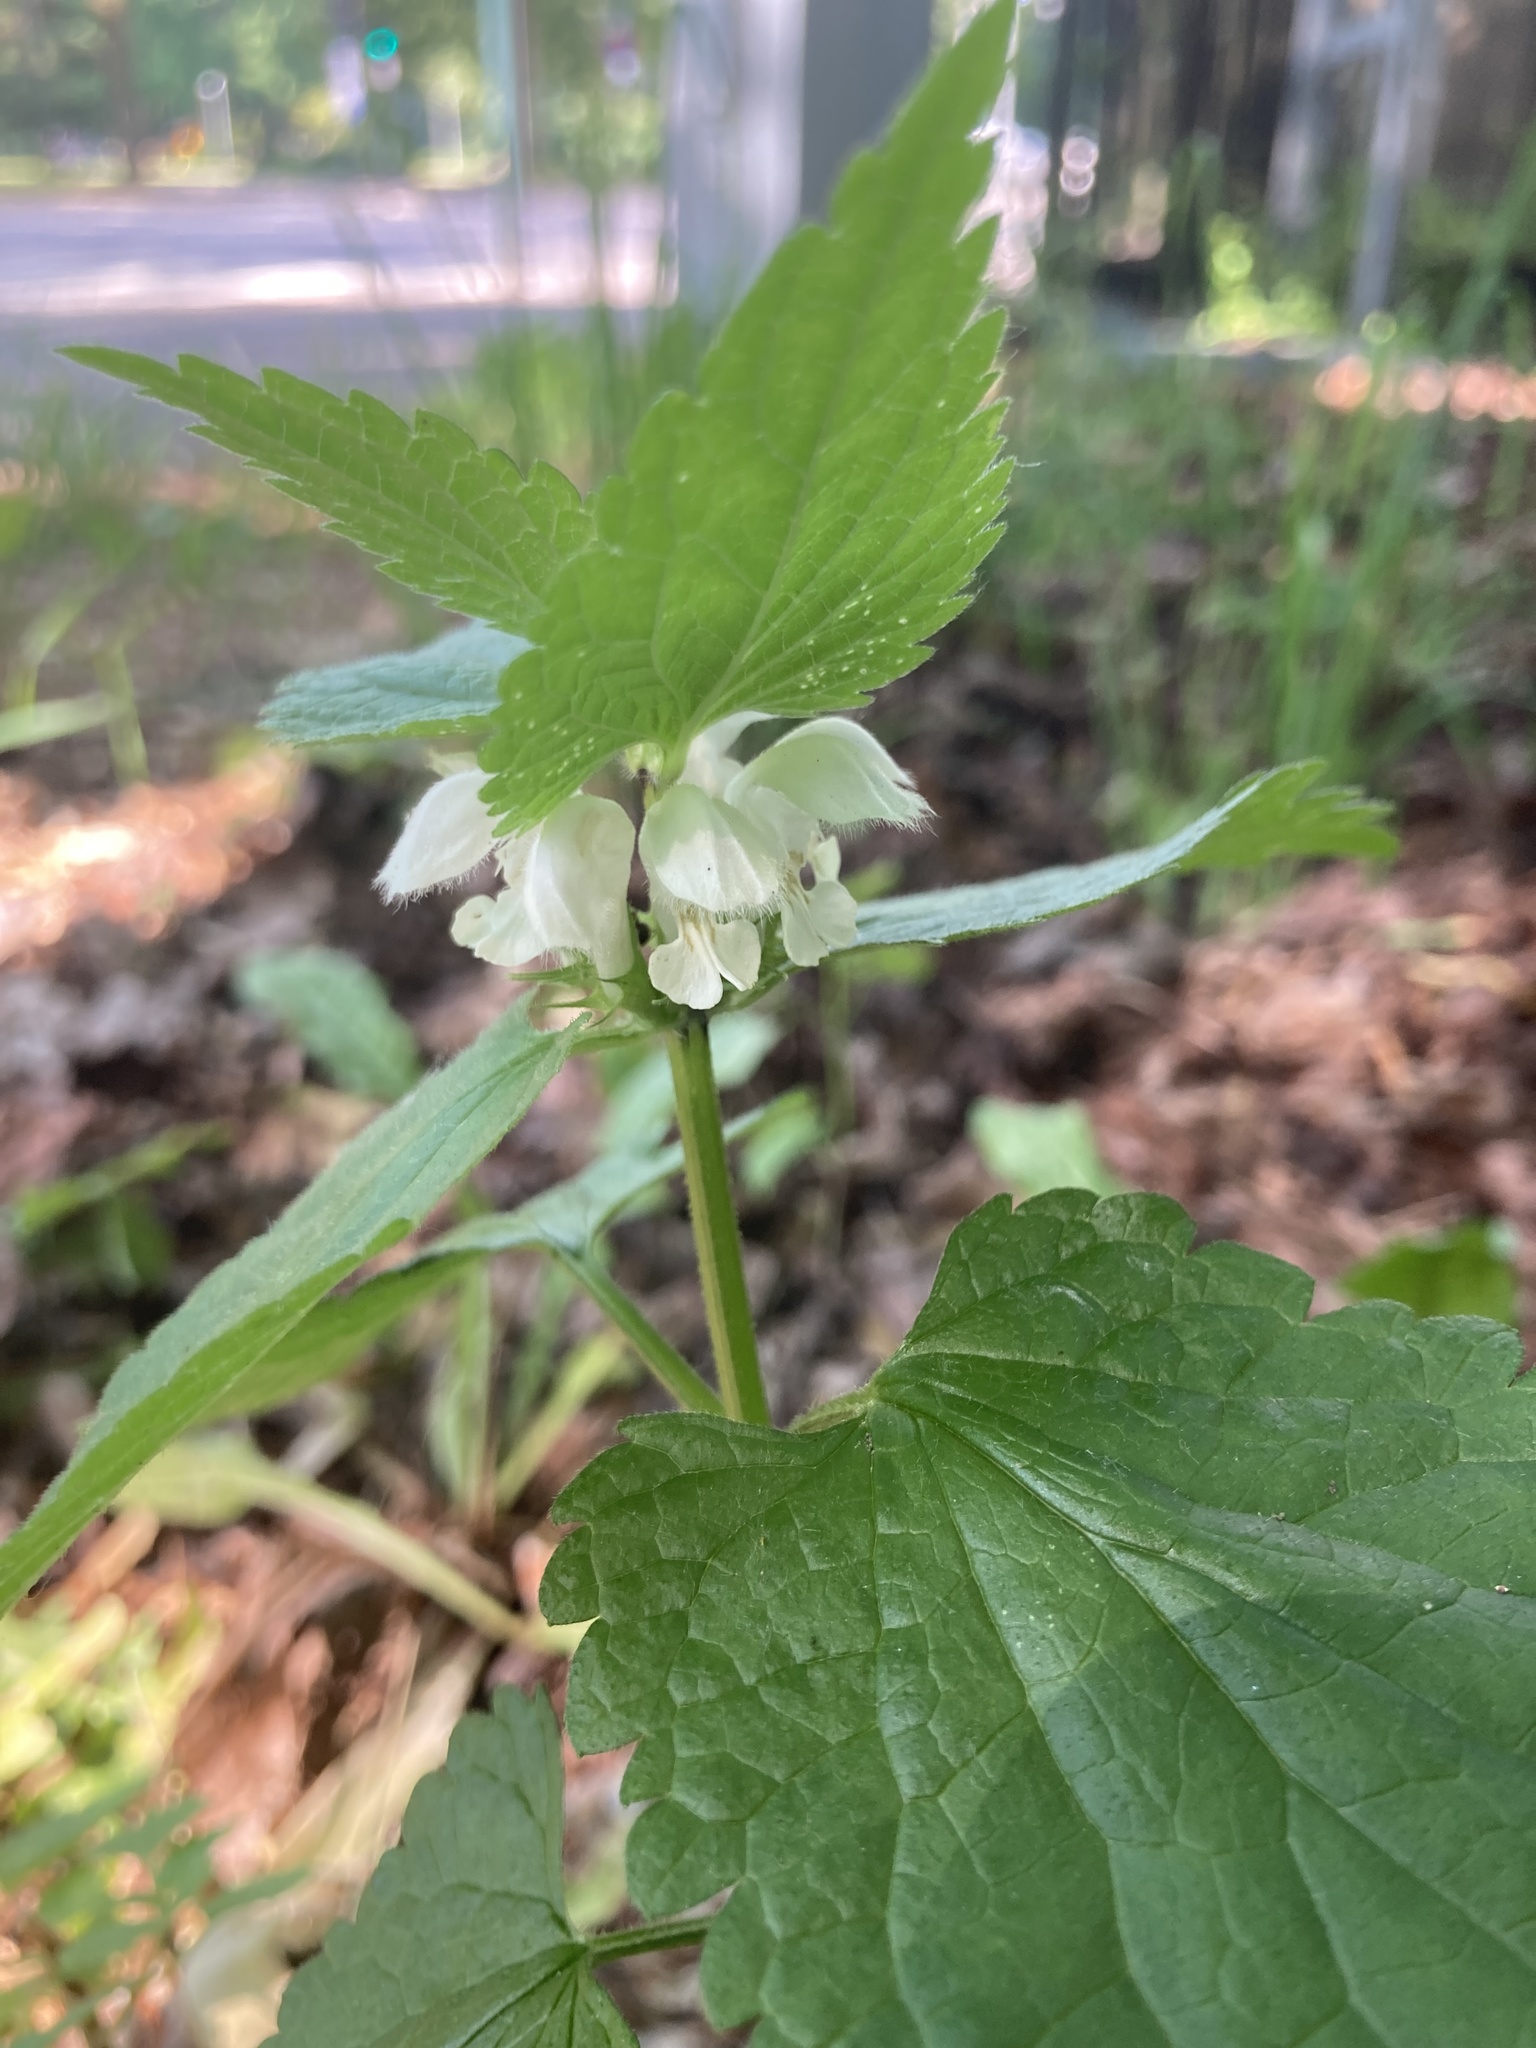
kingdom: Plantae
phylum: Tracheophyta
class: Magnoliopsida
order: Lamiales
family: Lamiaceae
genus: Lamium
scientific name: Lamium album
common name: White dead-nettle
